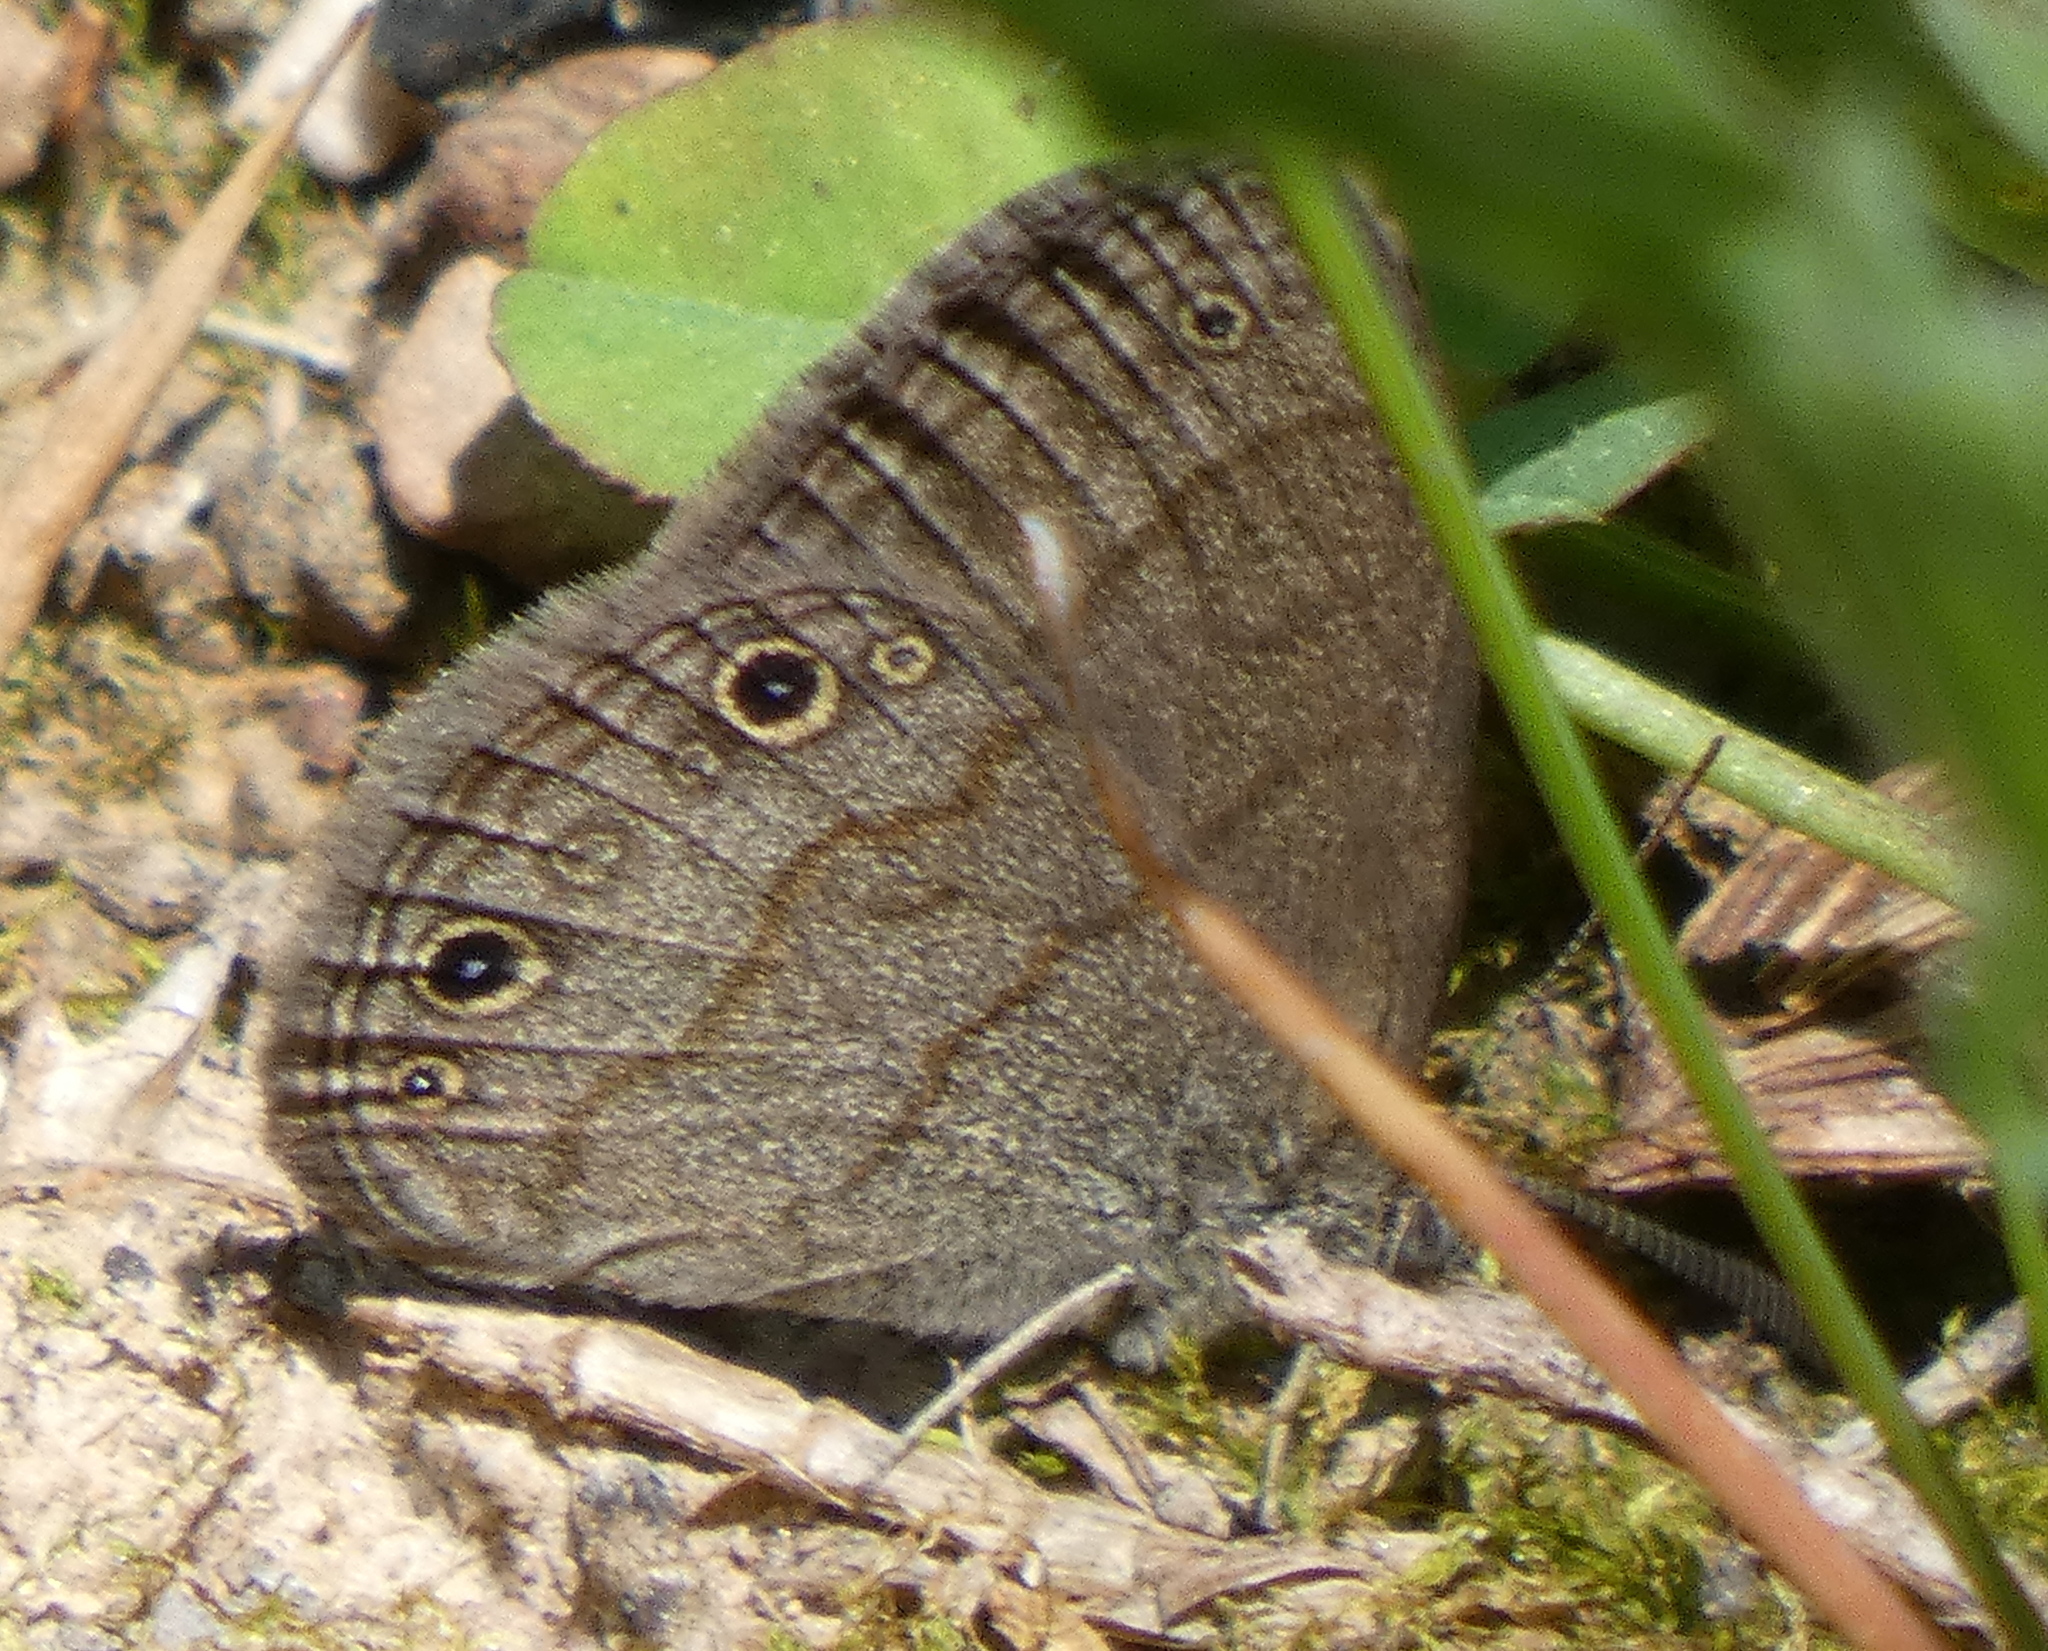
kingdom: Animalia
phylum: Arthropoda
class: Insecta
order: Lepidoptera
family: Nymphalidae
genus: Hermeuptychia
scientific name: Hermeuptychia hermes
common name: Hermes satyr
